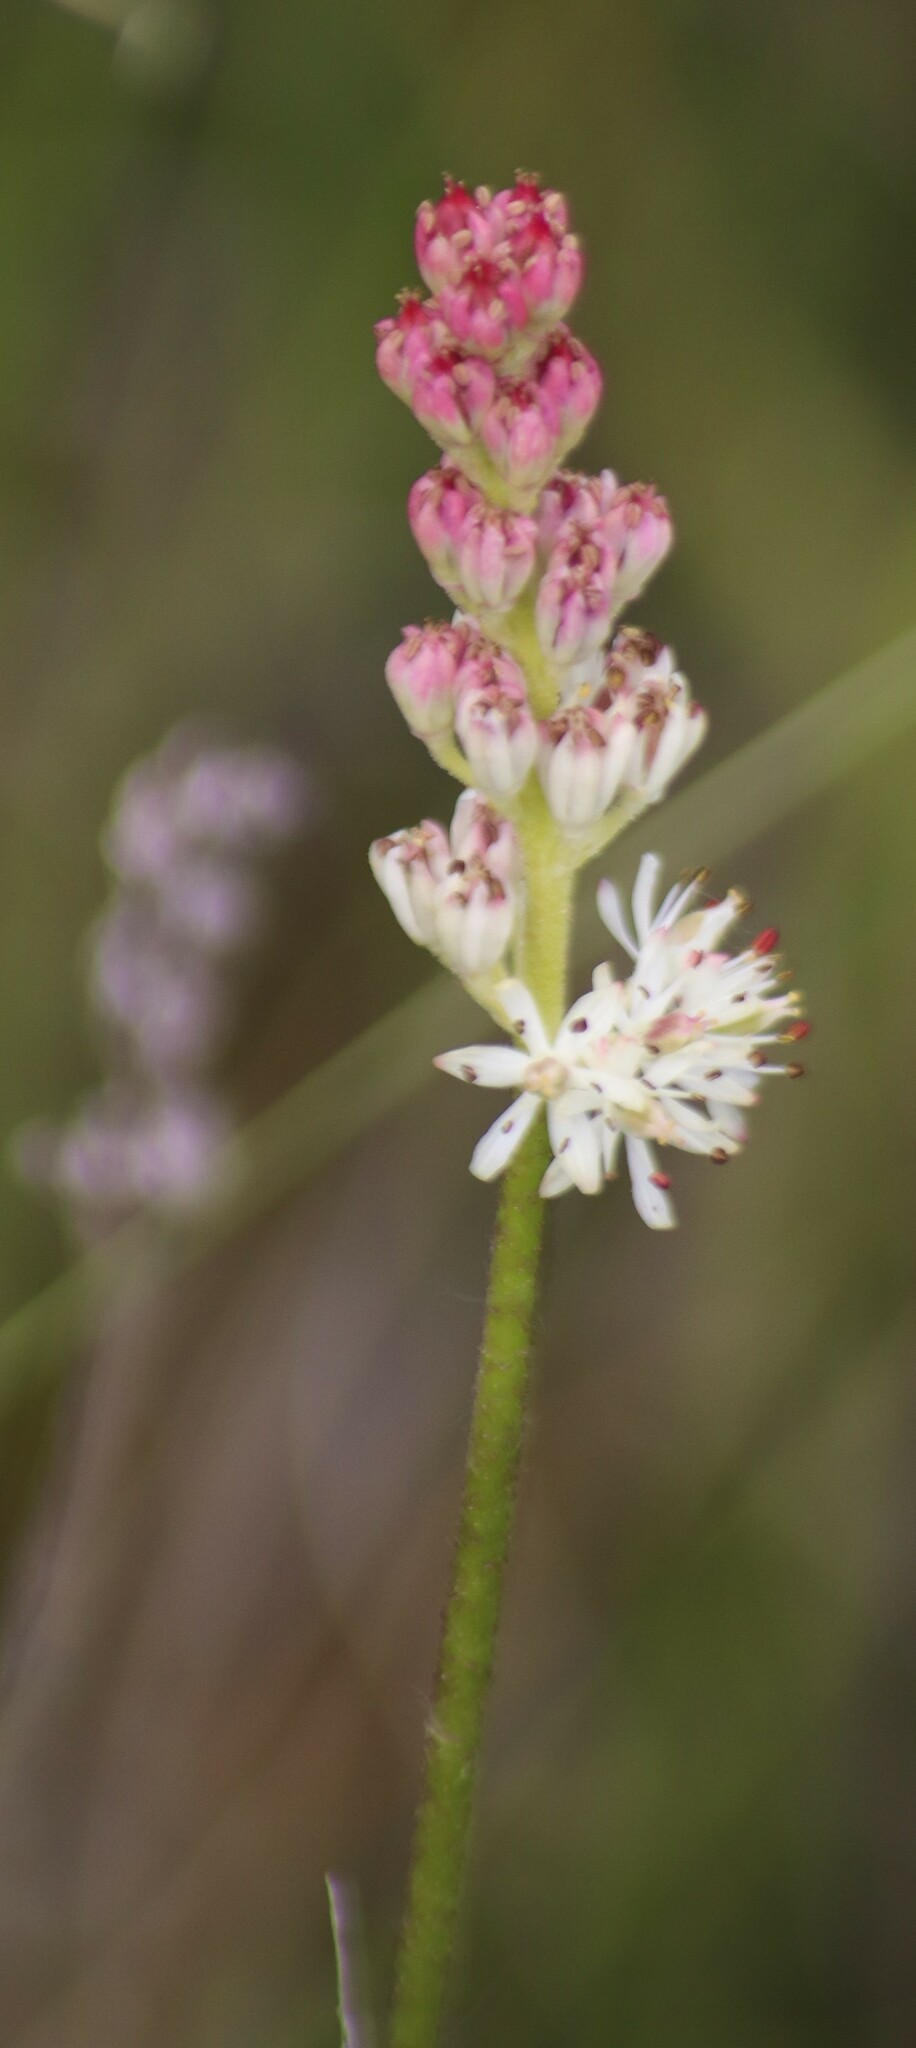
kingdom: Plantae
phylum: Tracheophyta
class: Liliopsida
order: Alismatales
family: Tofieldiaceae
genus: Triantha
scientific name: Triantha glutinosa
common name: Glutinous tofieldia
